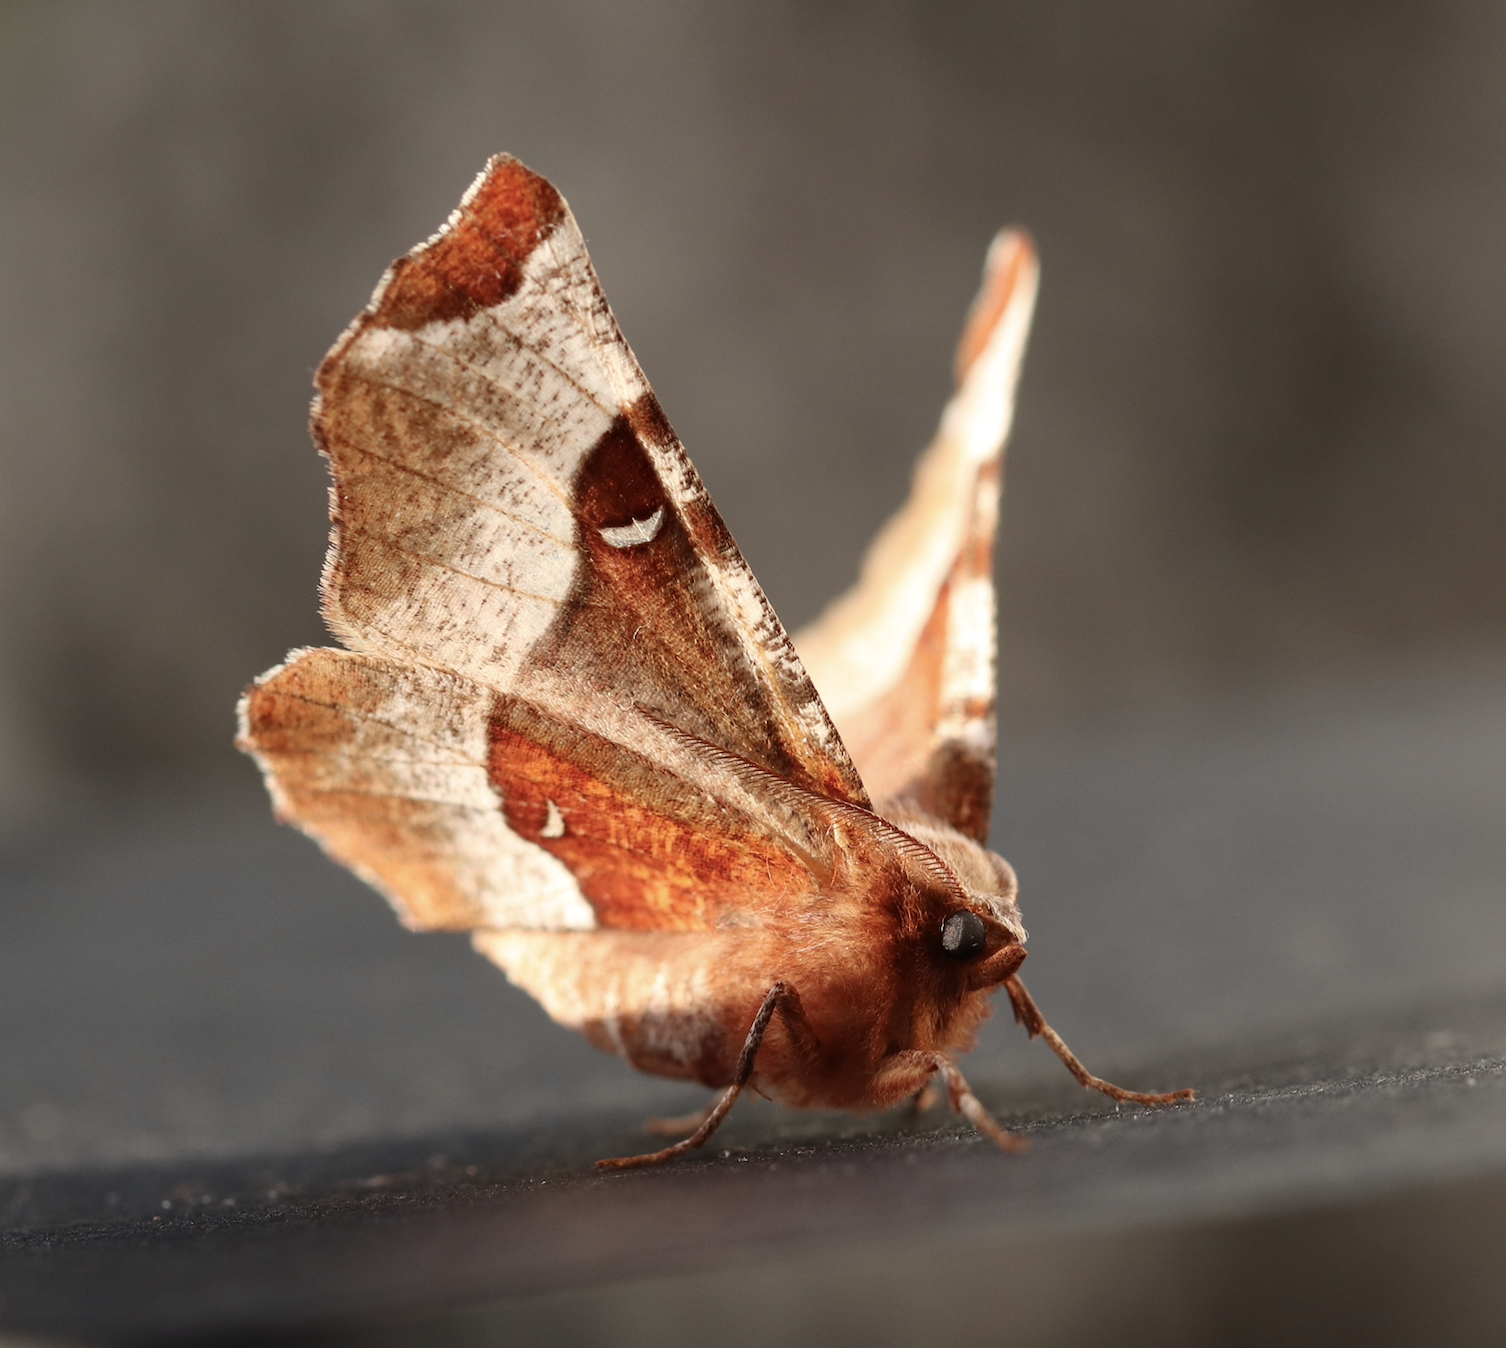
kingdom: Animalia
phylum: Arthropoda
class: Insecta
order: Lepidoptera
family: Geometridae
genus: Selenia
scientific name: Selenia tetralunaria
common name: Purple thorn
